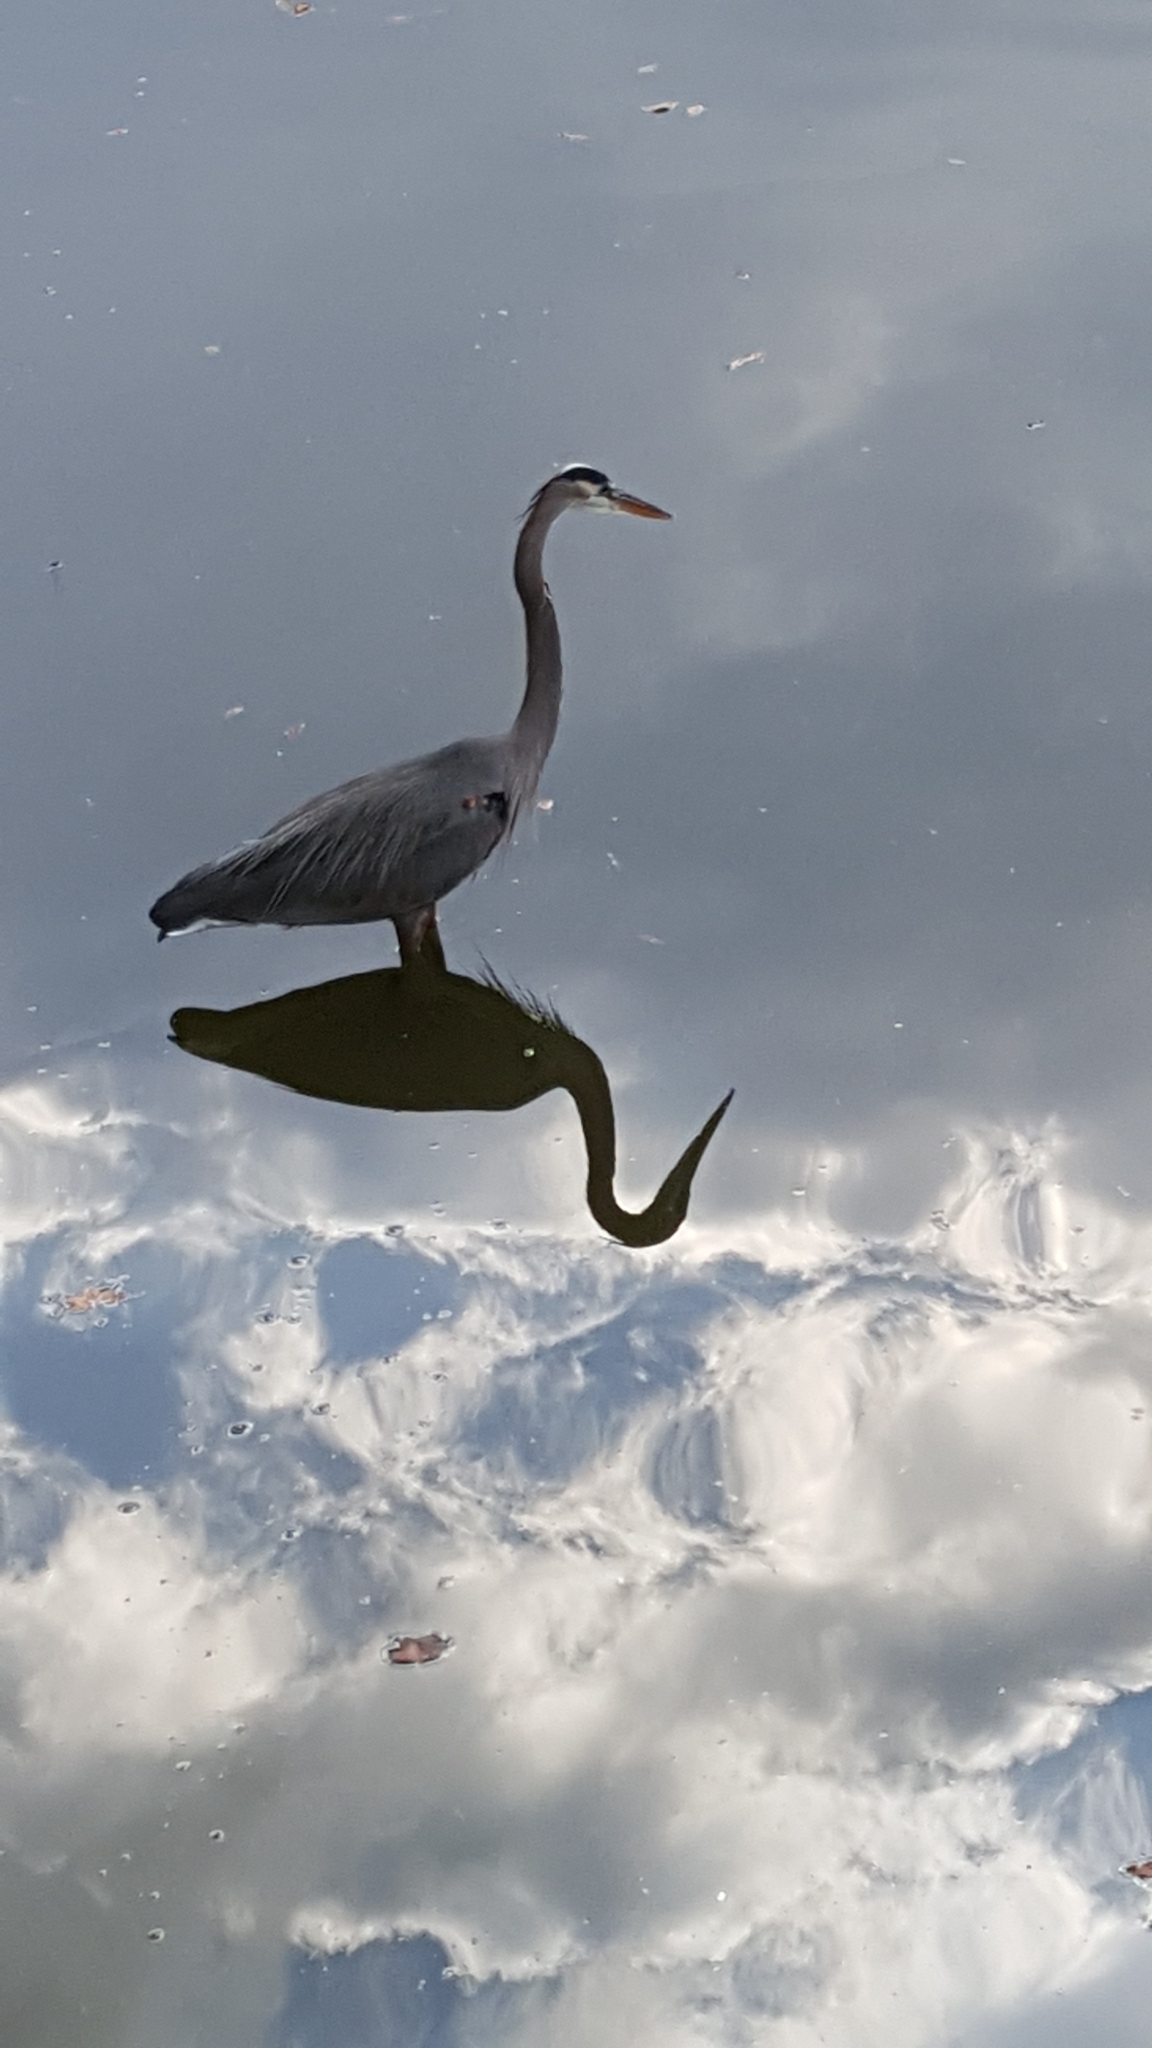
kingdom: Animalia
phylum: Chordata
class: Aves
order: Pelecaniformes
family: Ardeidae
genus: Ardea
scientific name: Ardea herodias
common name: Great blue heron
